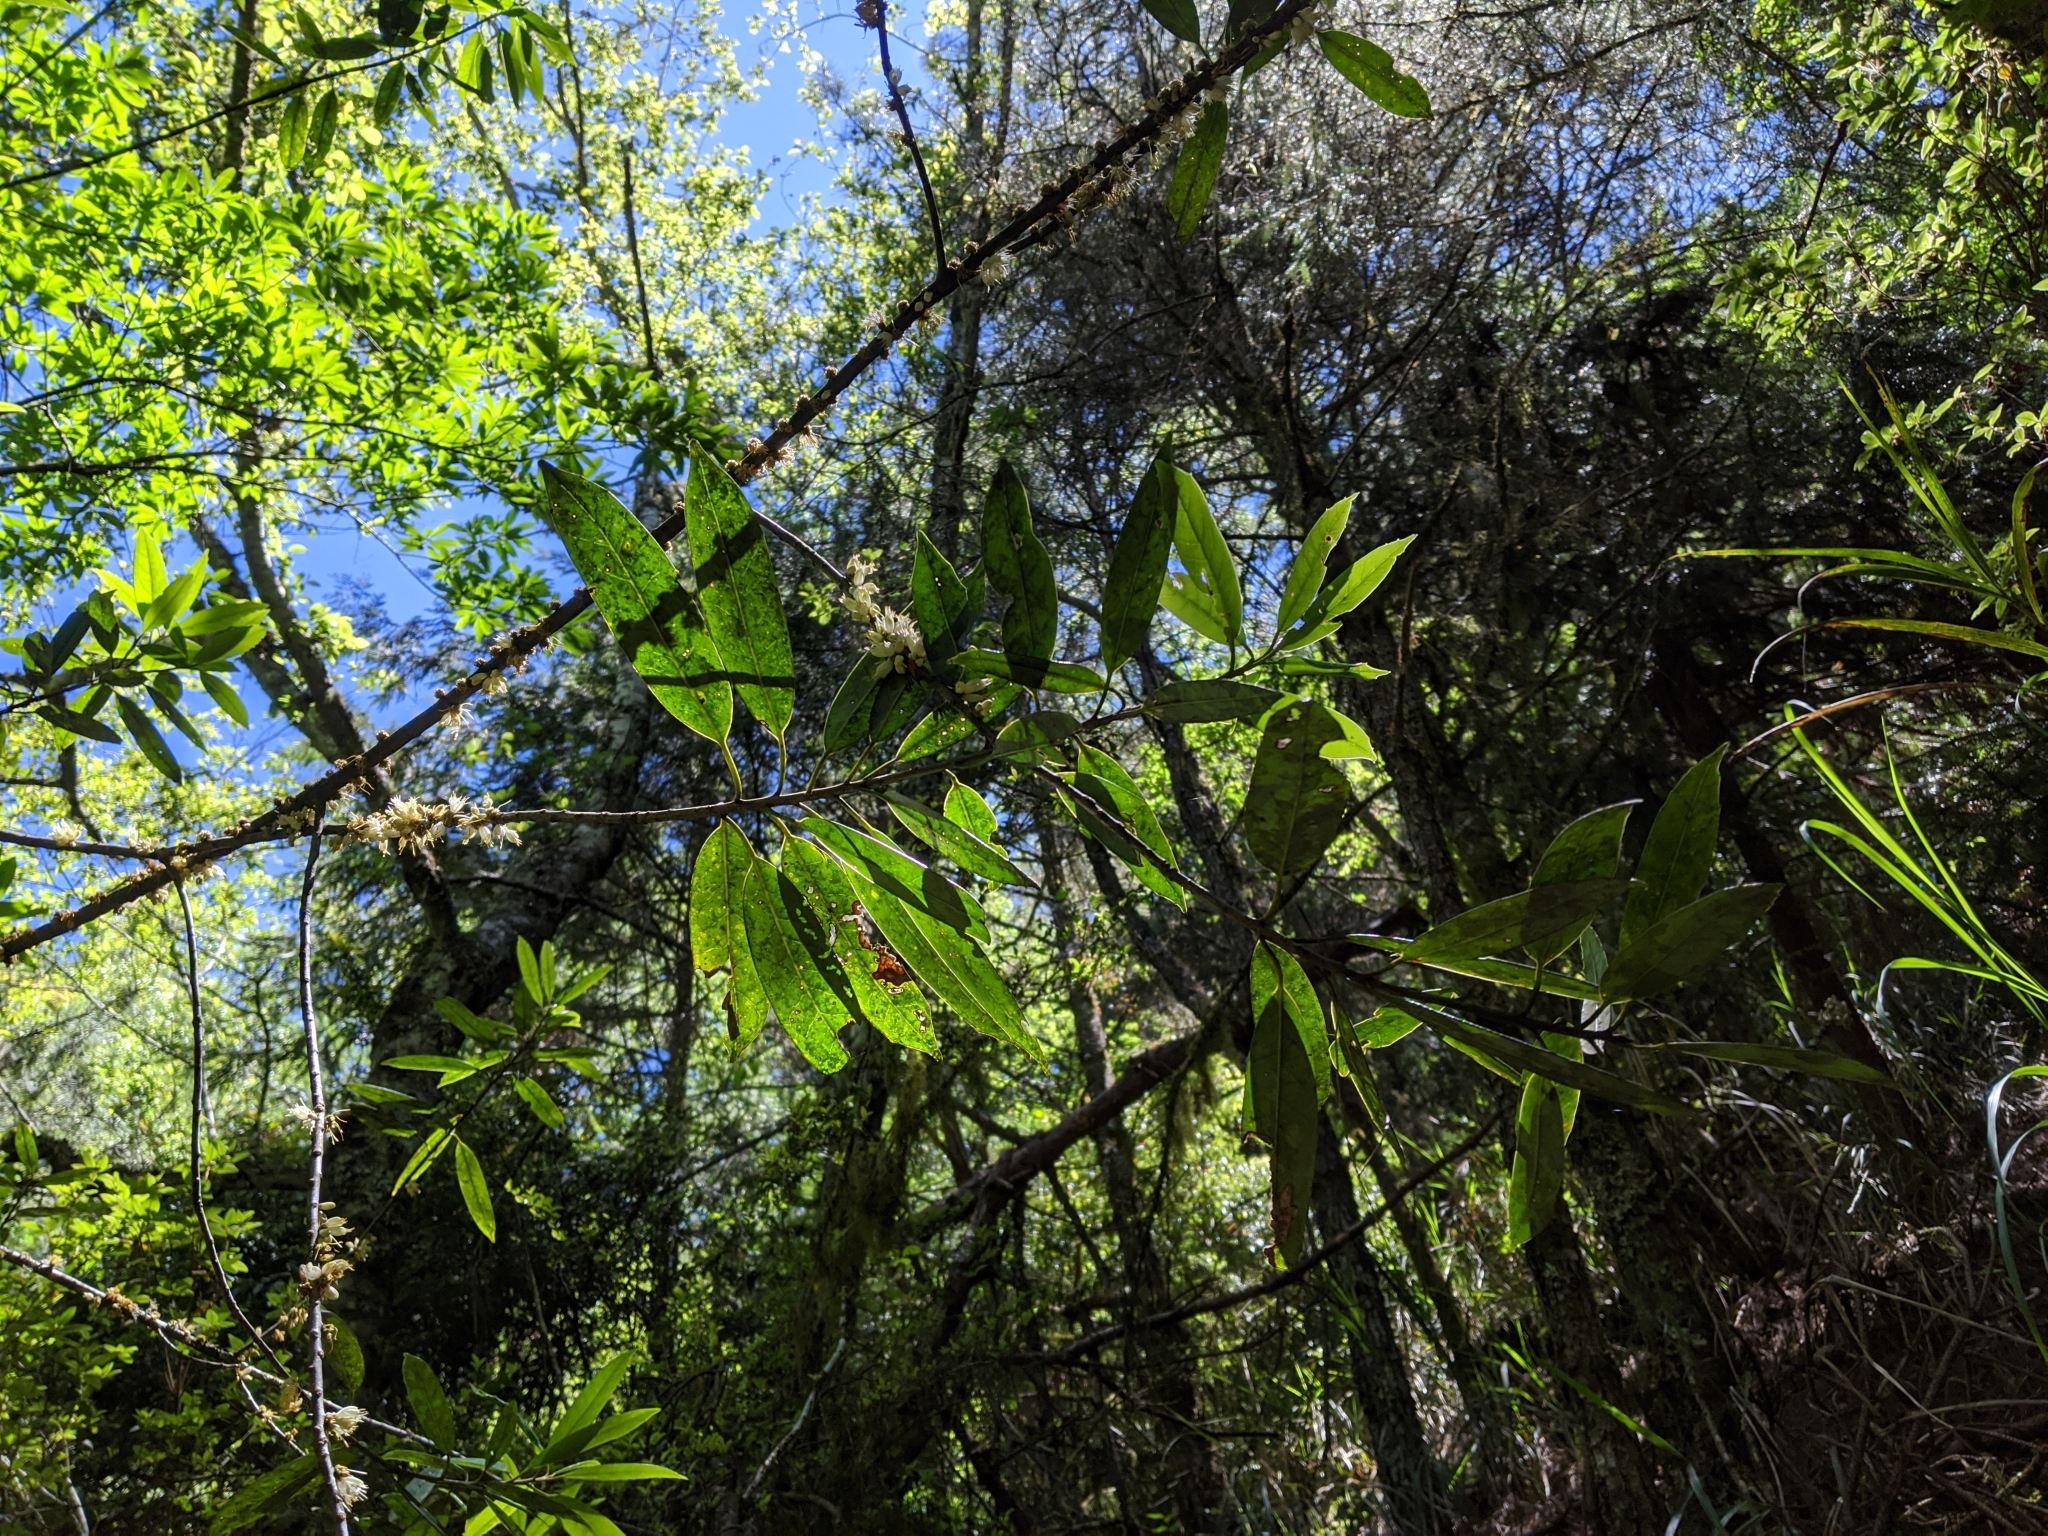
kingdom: Plantae
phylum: Tracheophyta
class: Magnoliopsida
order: Ericales
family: Symplocaceae
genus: Symplocos
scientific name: Symplocos stellaris
